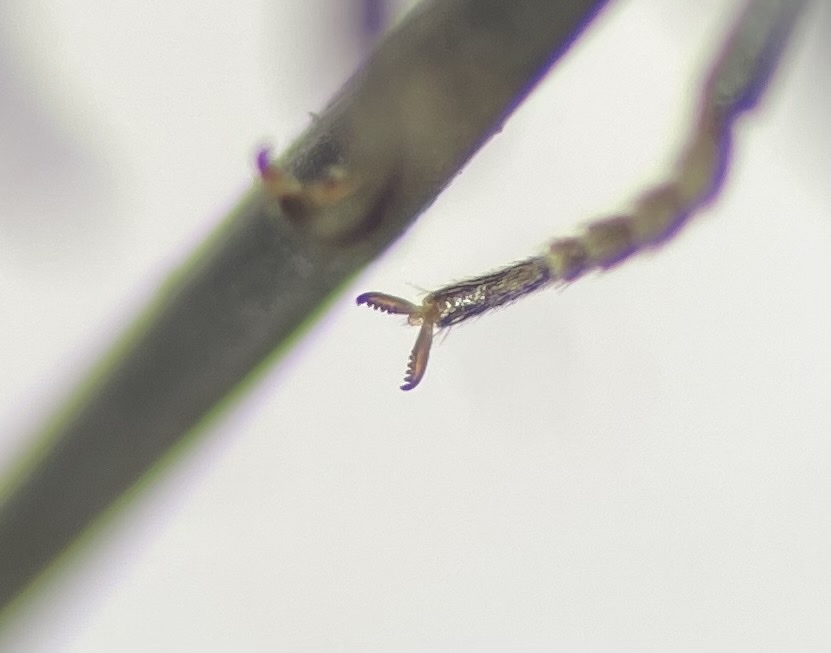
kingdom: Animalia
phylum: Arthropoda
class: Insecta
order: Coleoptera
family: Tenebrionidae
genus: Chromatia
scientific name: Chromatia amoena
